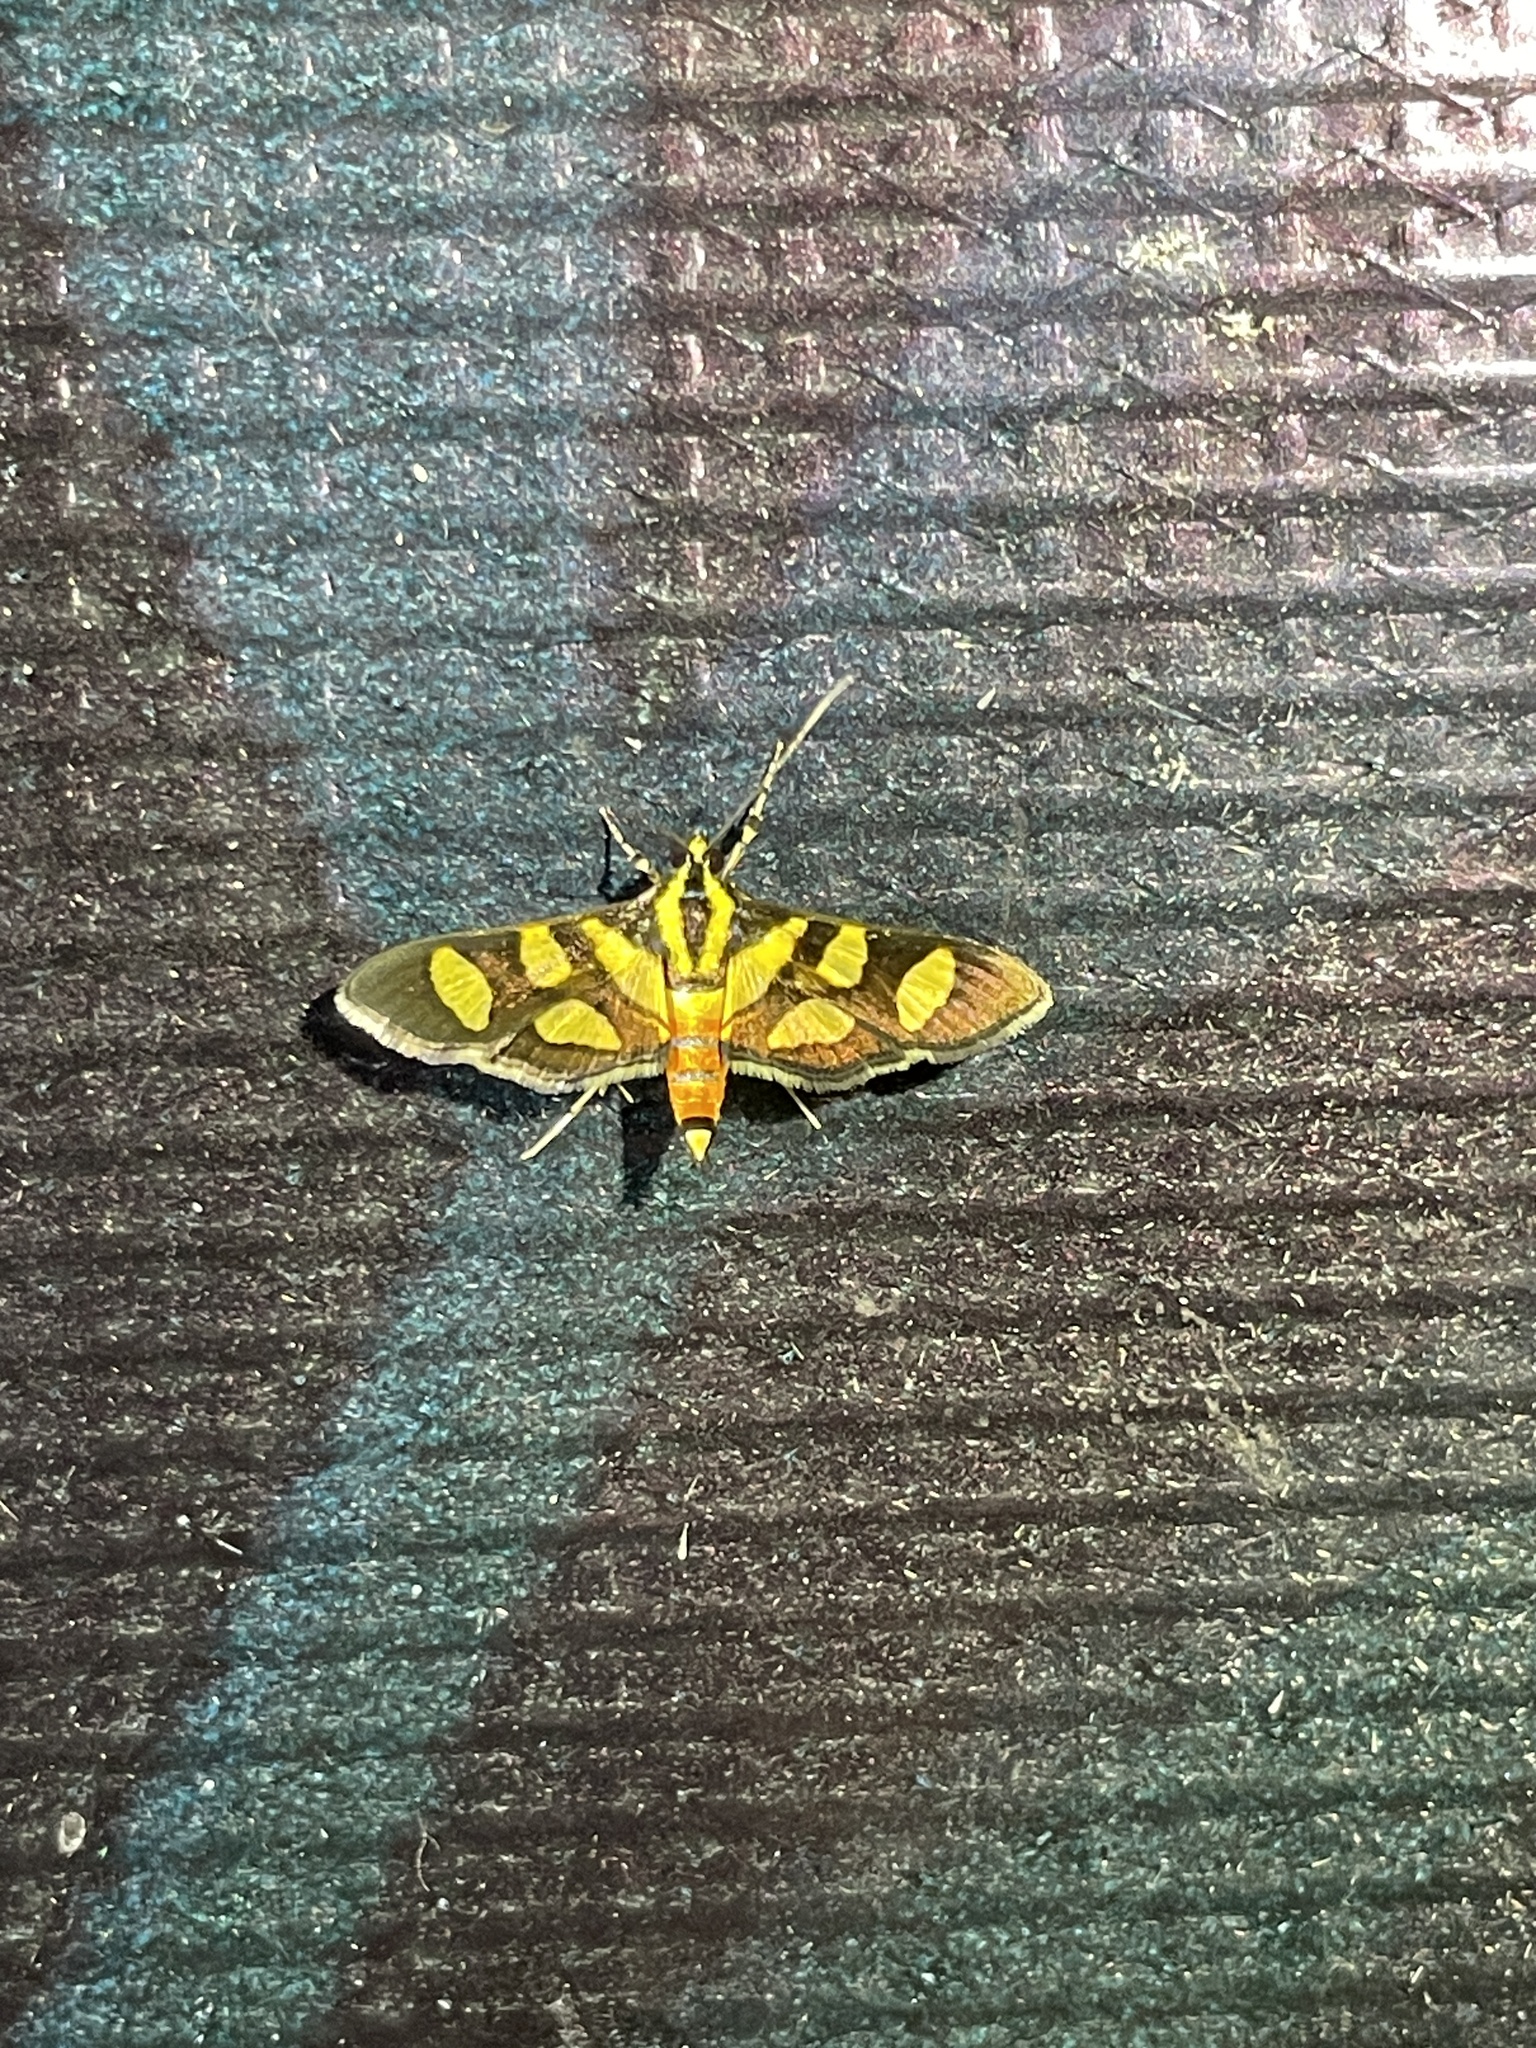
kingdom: Animalia
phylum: Arthropoda
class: Insecta
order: Lepidoptera
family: Crambidae
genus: Syngamia
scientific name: Syngamia florella
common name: Orange-spotted flower moth
